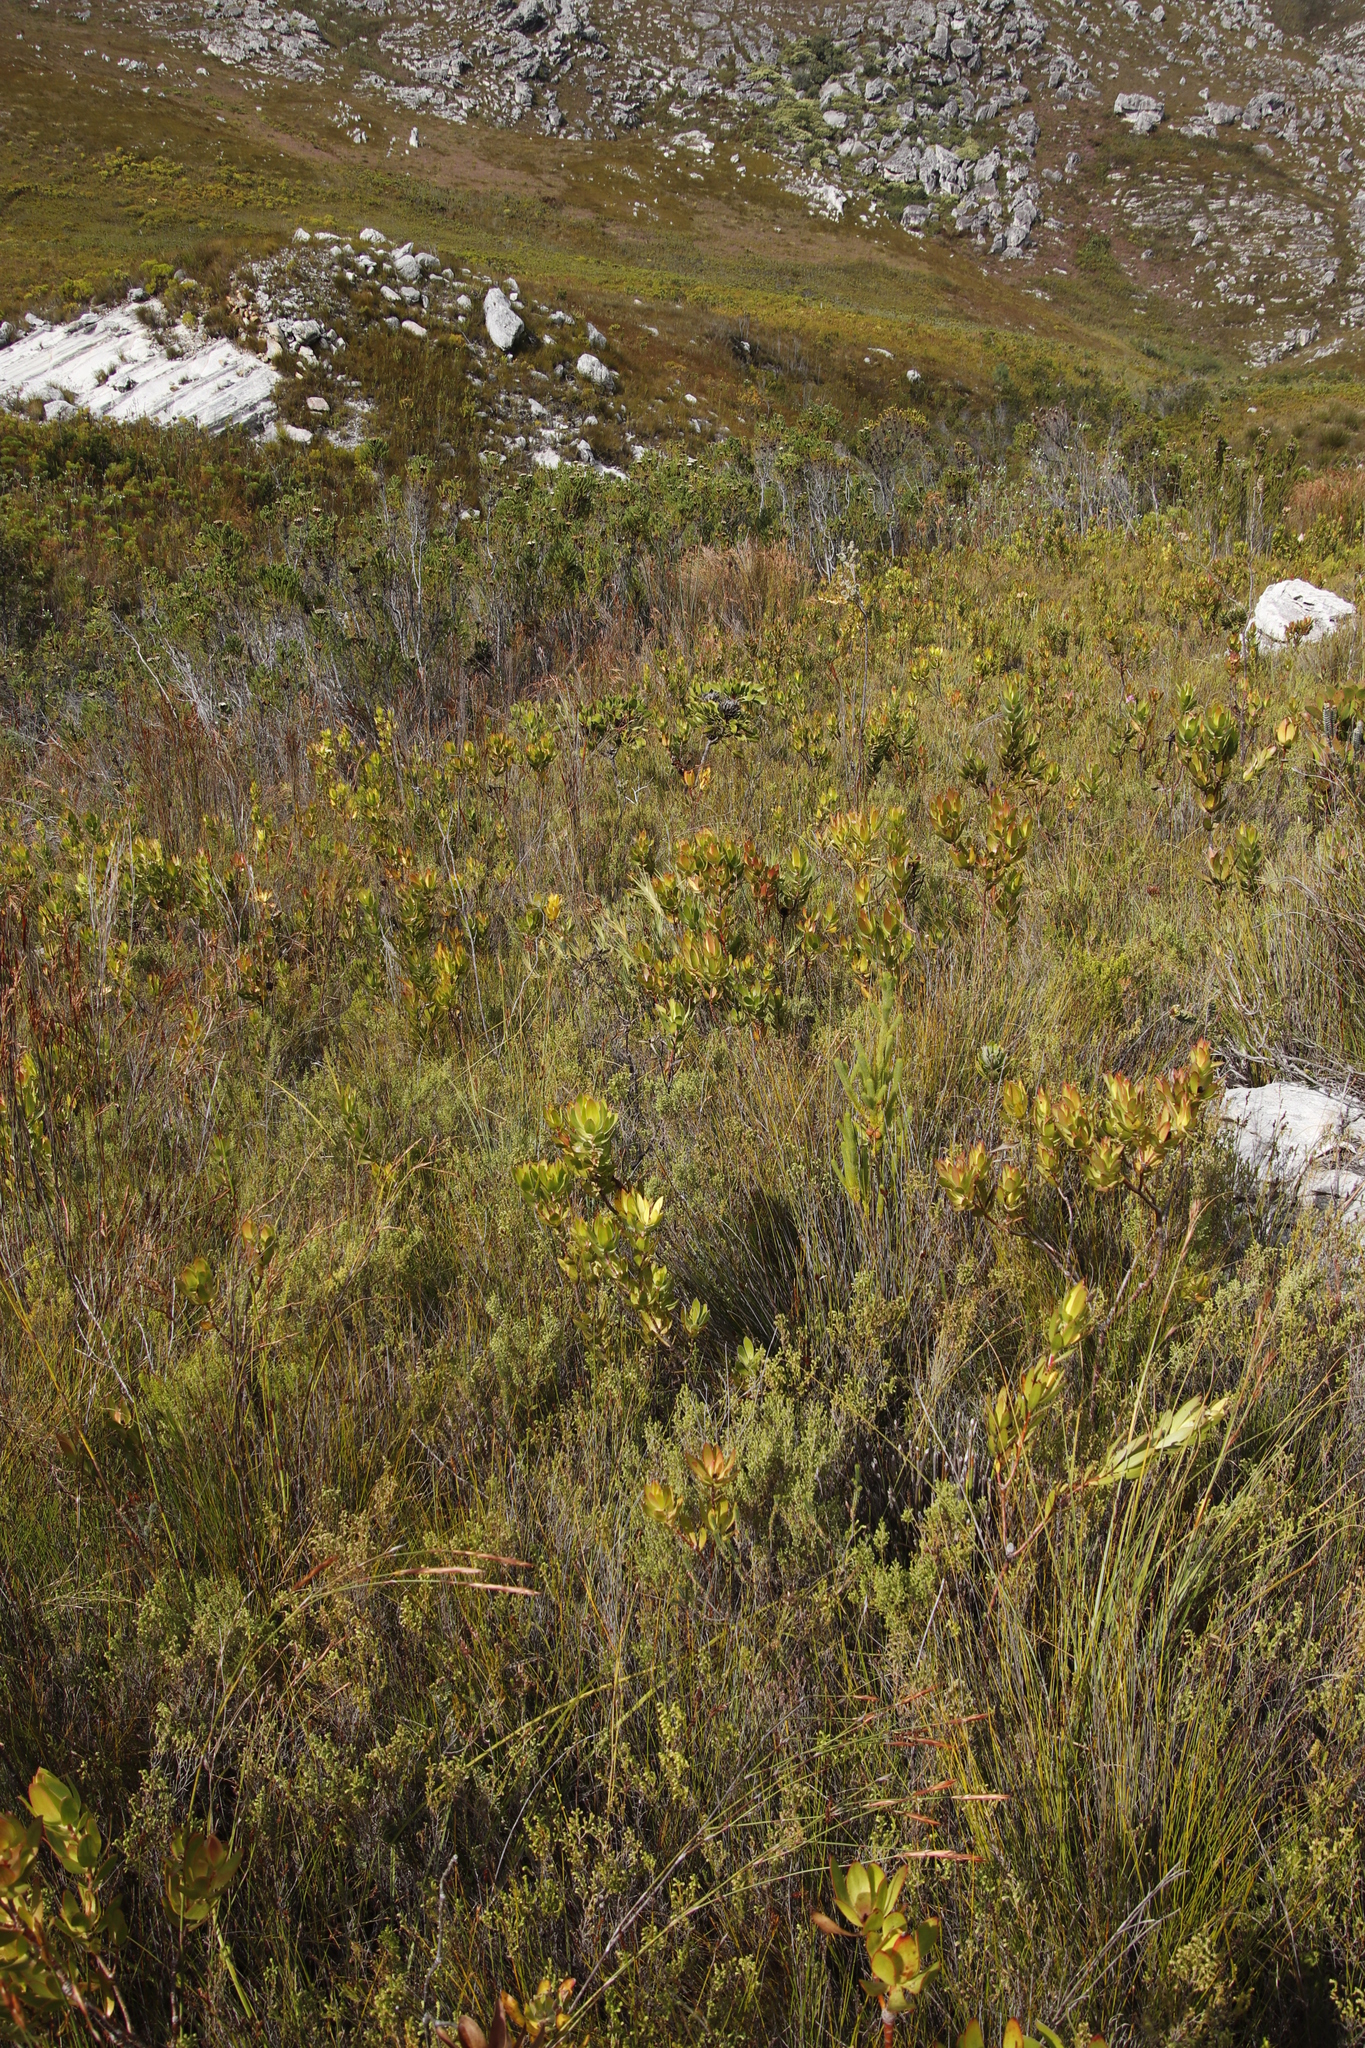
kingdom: Plantae
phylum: Tracheophyta
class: Magnoliopsida
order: Proteales
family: Proteaceae
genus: Leucadendron
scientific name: Leucadendron gandogeri
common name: Broad-leaf conebush
